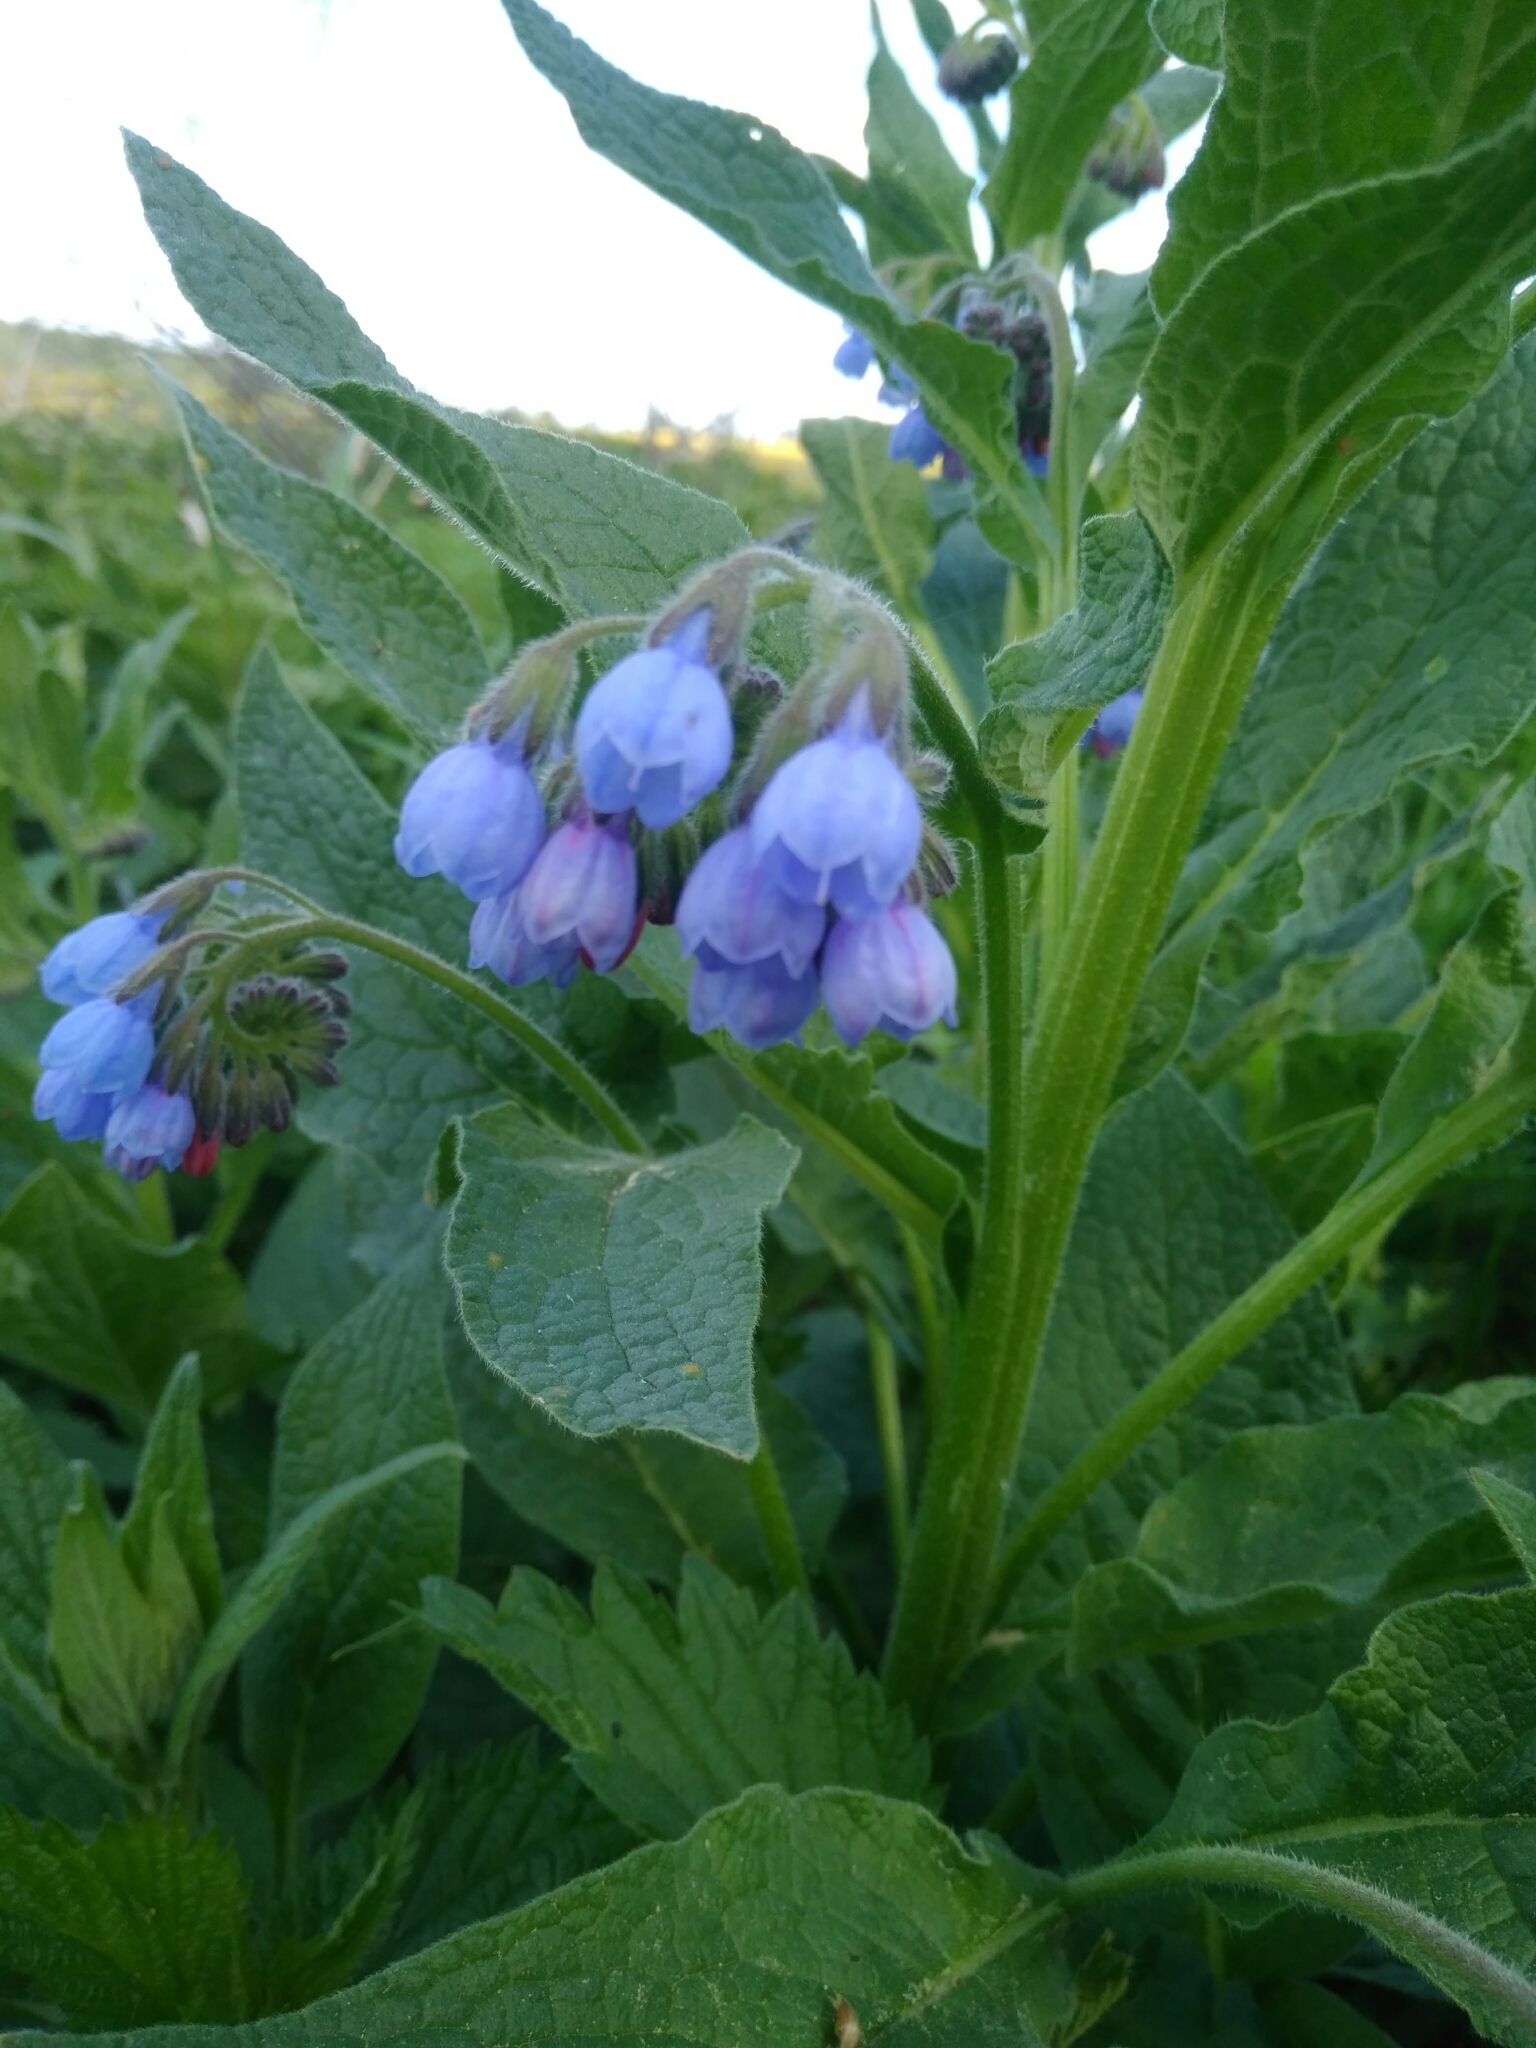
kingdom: Plantae
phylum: Tracheophyta
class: Magnoliopsida
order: Boraginales
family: Boraginaceae
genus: Symphytum
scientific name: Symphytum caucasicum
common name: Caucasian comfrey
